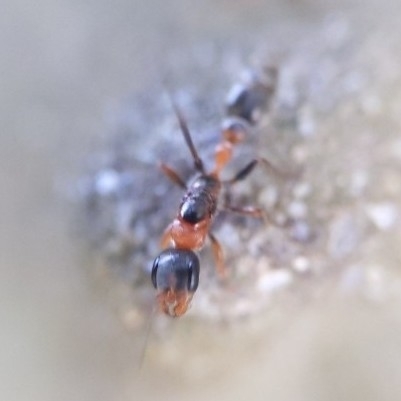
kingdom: Animalia
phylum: Arthropoda
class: Insecta
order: Hymenoptera
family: Formicidae
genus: Pseudomyrmex
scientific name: Pseudomyrmex gracilis
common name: Graceful twig ant
